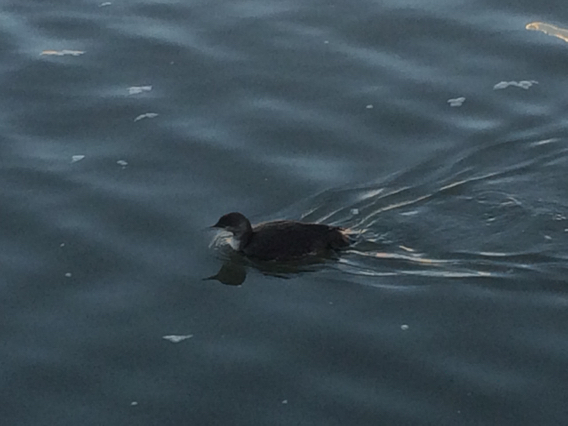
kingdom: Animalia
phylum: Chordata
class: Aves
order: Gaviiformes
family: Gaviidae
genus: Gavia
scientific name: Gavia pacifica
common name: Pacific loon
